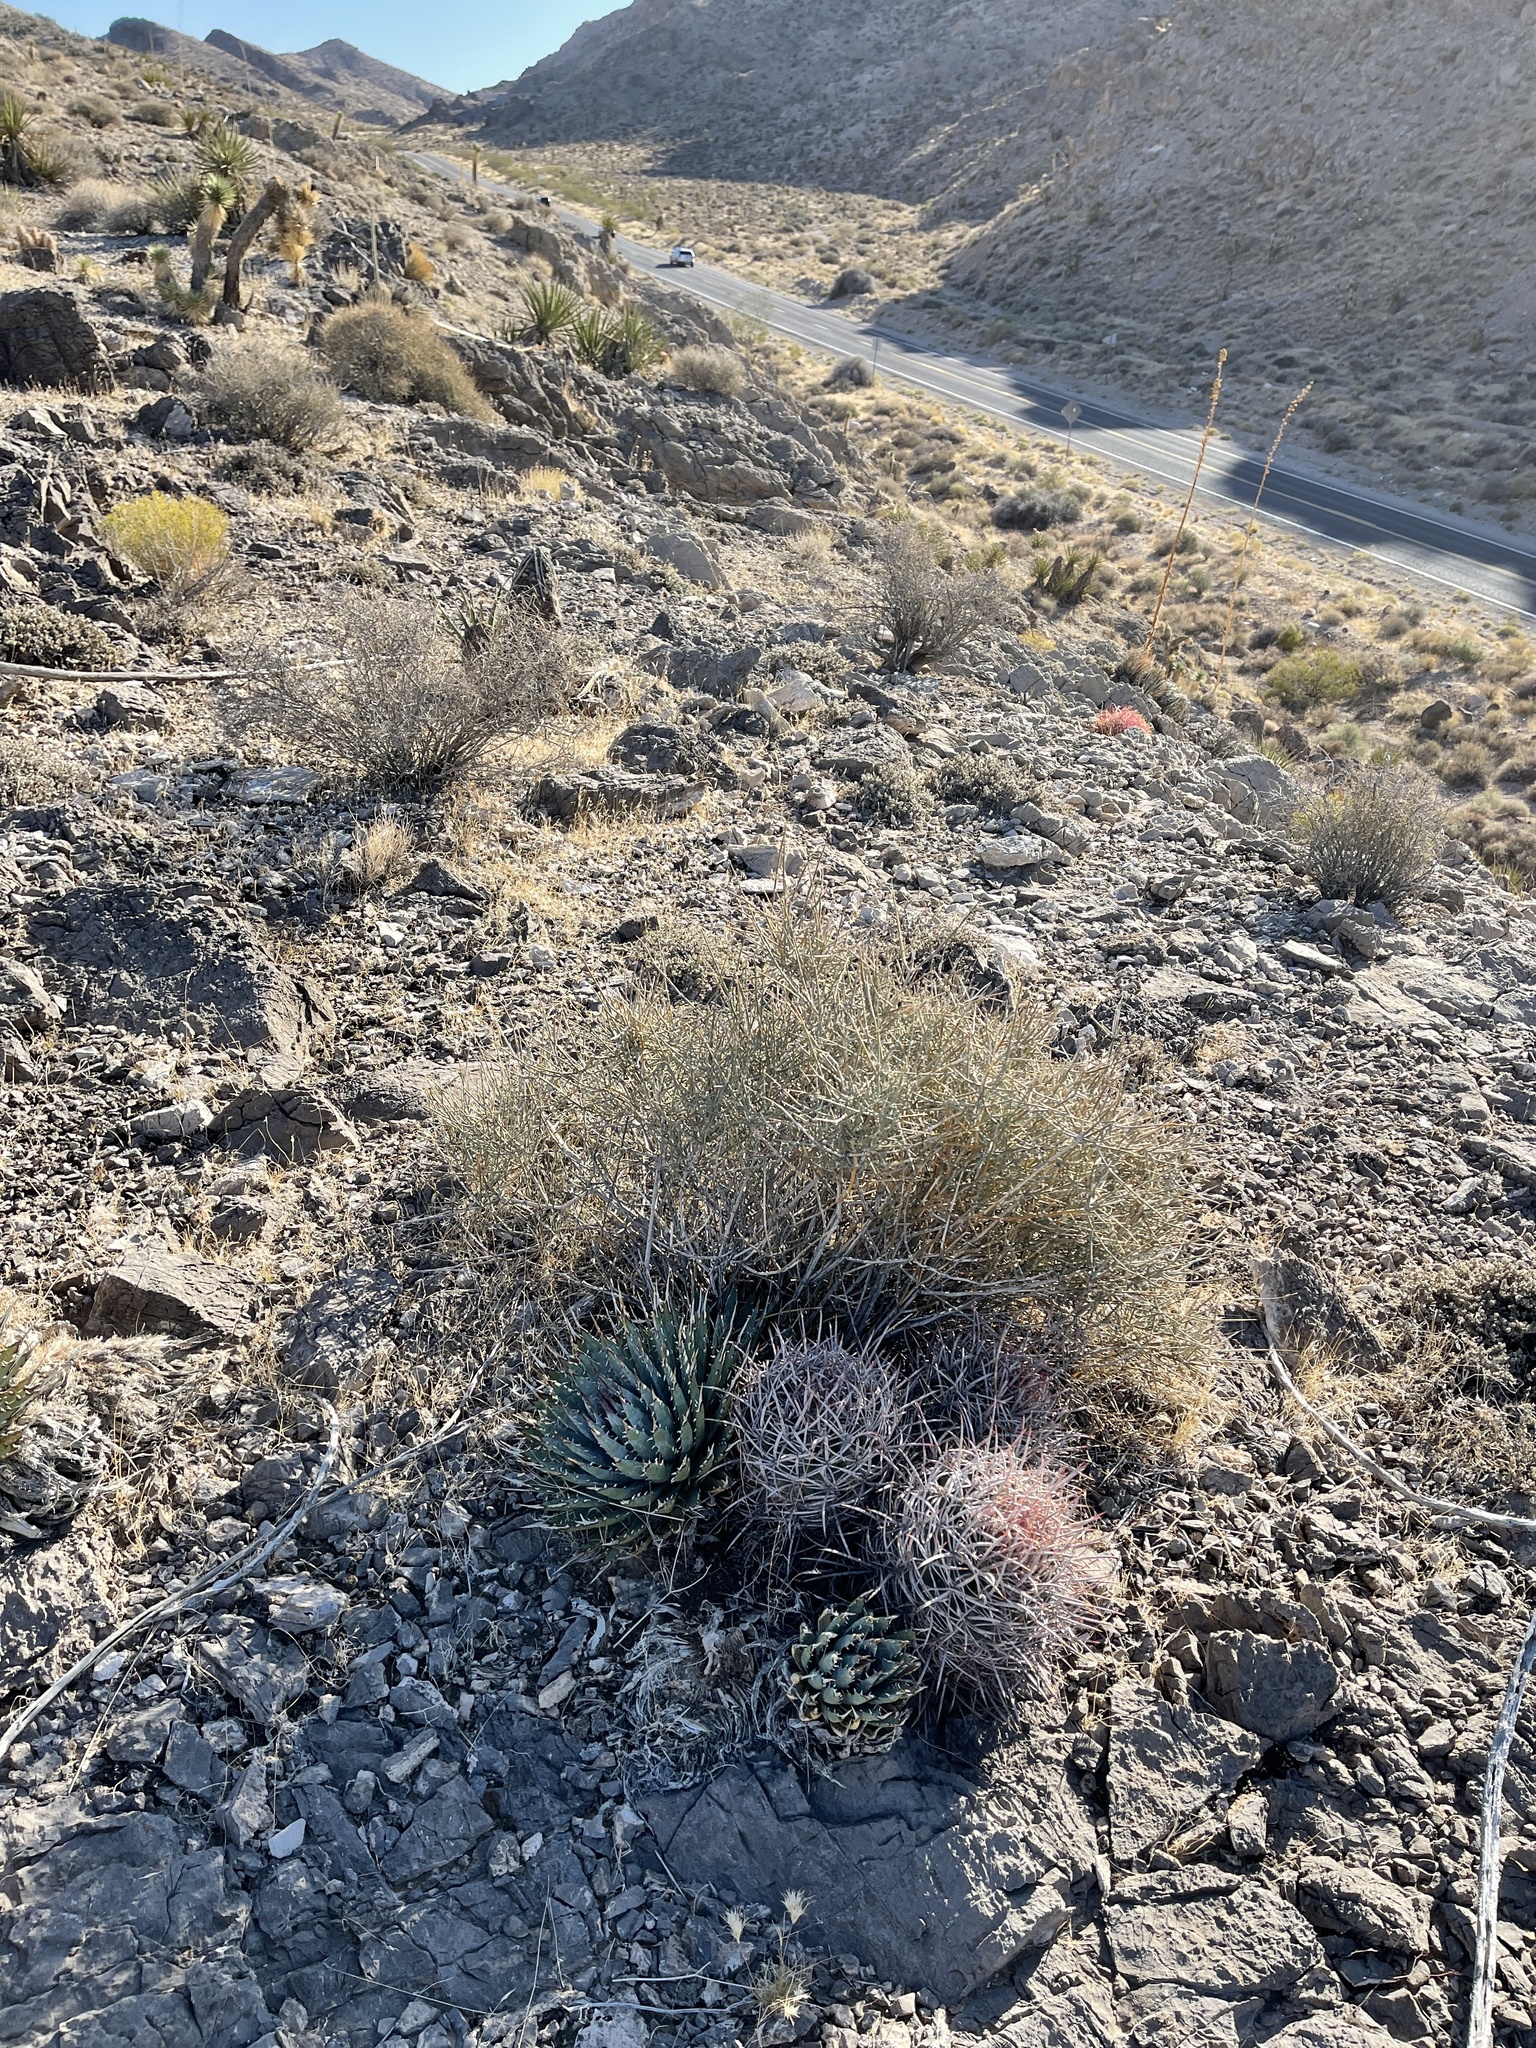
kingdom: Plantae
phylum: Tracheophyta
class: Gnetopsida
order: Ephedrales
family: Ephedraceae
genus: Ephedra
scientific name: Ephedra nevadensis
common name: Gray ephedra
